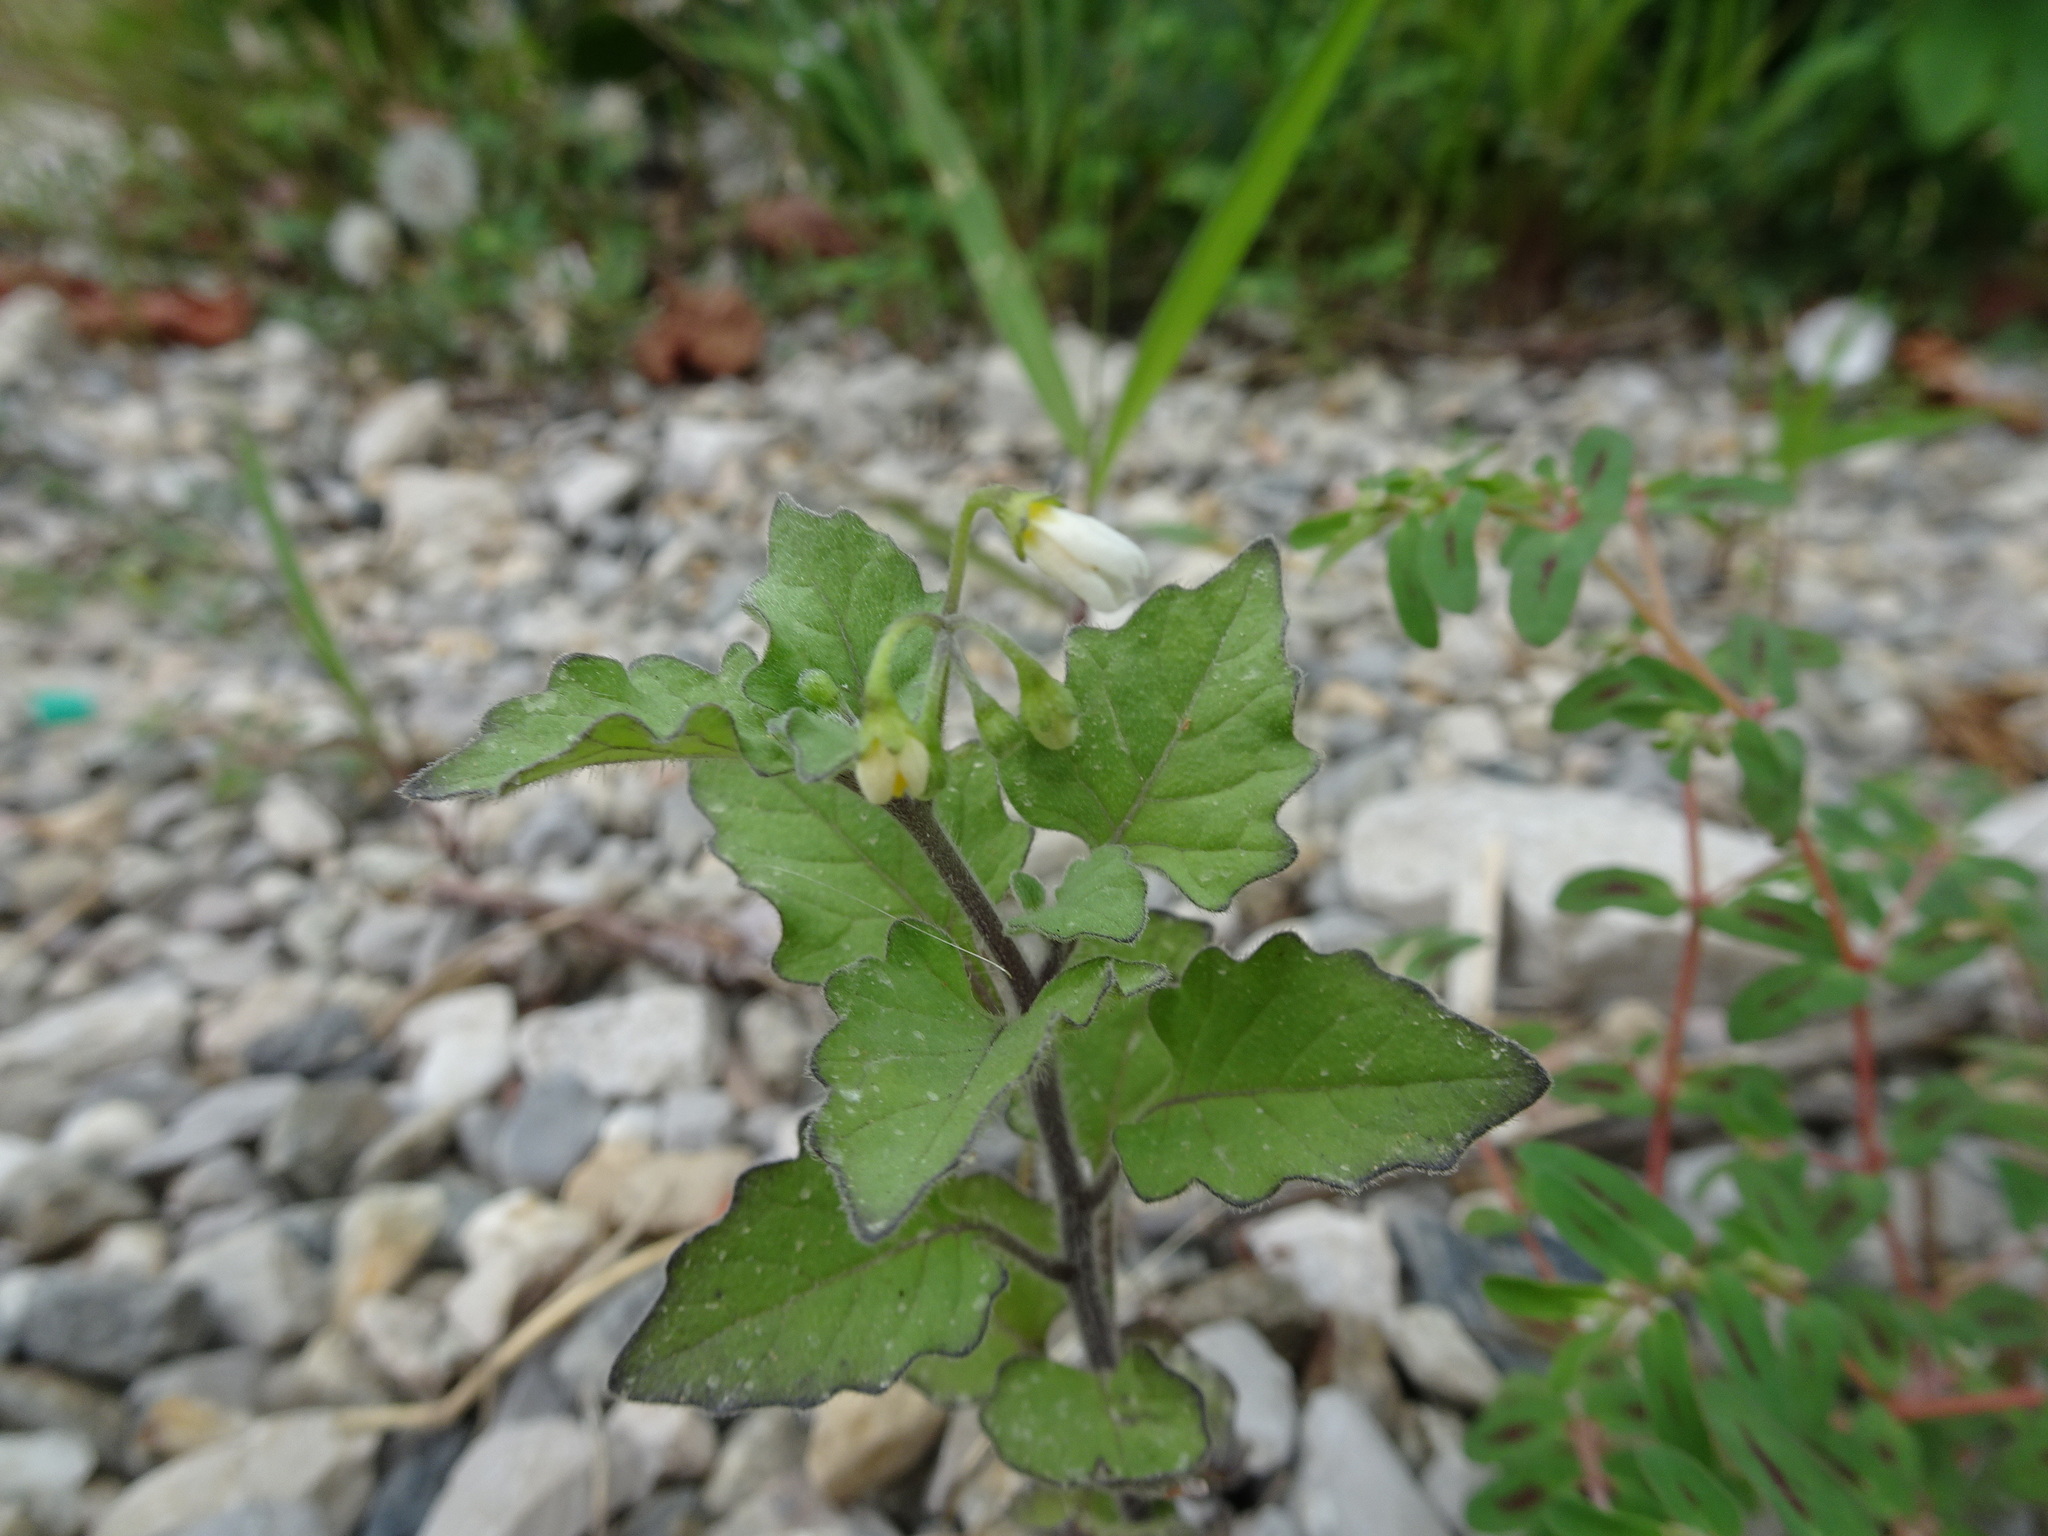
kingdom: Plantae
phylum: Tracheophyta
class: Magnoliopsida
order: Solanales
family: Solanaceae
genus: Solanum
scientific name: Solanum nigrum
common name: Black nightshade
